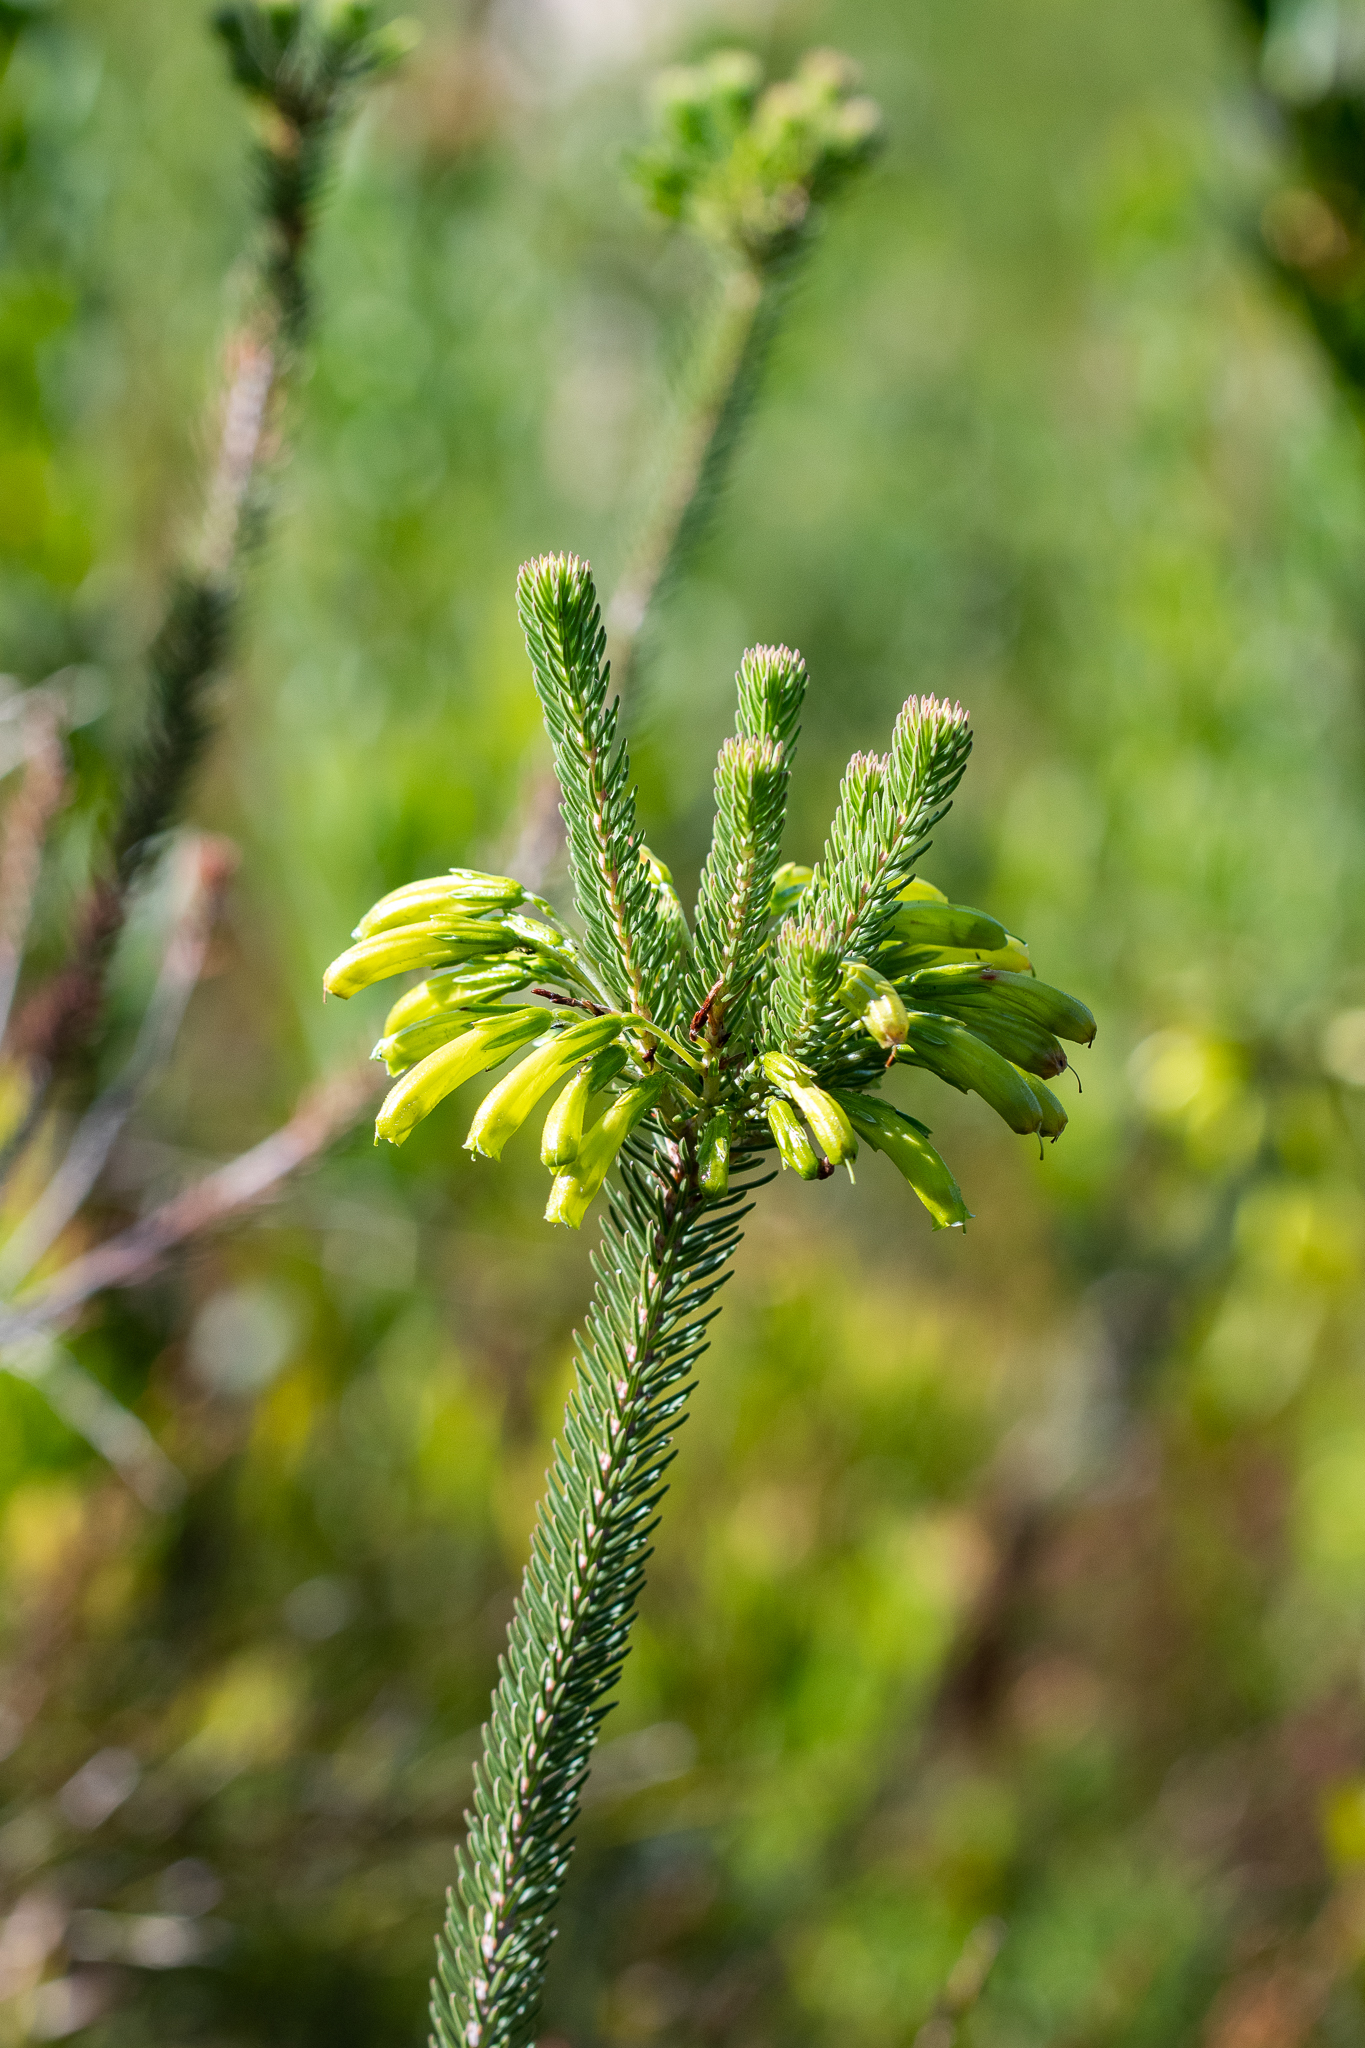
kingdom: Plantae
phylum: Tracheophyta
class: Magnoliopsida
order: Ericales
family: Ericaceae
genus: Erica
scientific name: Erica thomae
